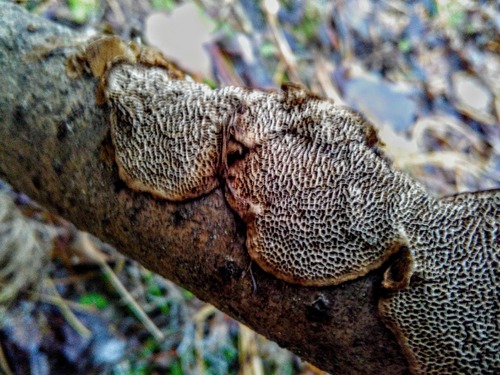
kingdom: Fungi
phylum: Basidiomycota
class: Agaricomycetes
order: Polyporales
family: Polyporaceae
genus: Podofomes
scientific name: Podofomes mollis
